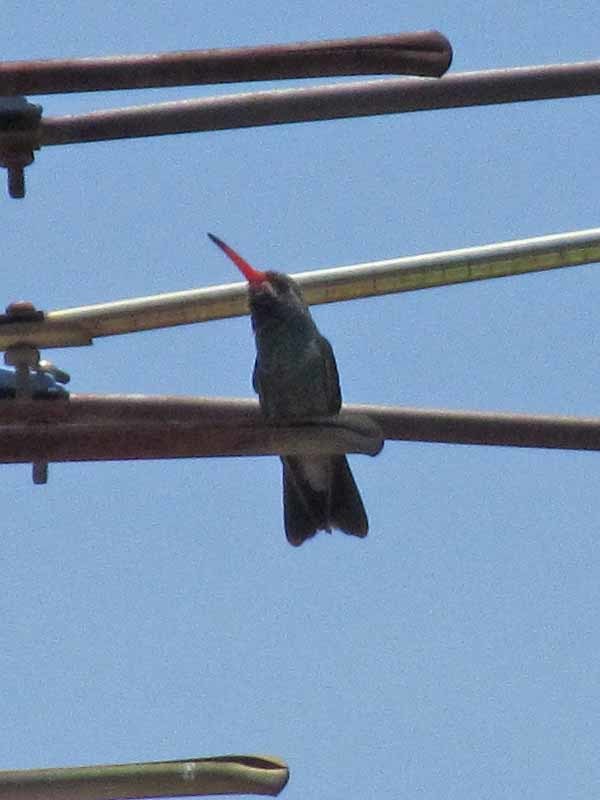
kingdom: Animalia
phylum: Chordata
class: Aves
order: Apodiformes
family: Trochilidae
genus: Cynanthus
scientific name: Cynanthus latirostris
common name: Broad-billed hummingbird
